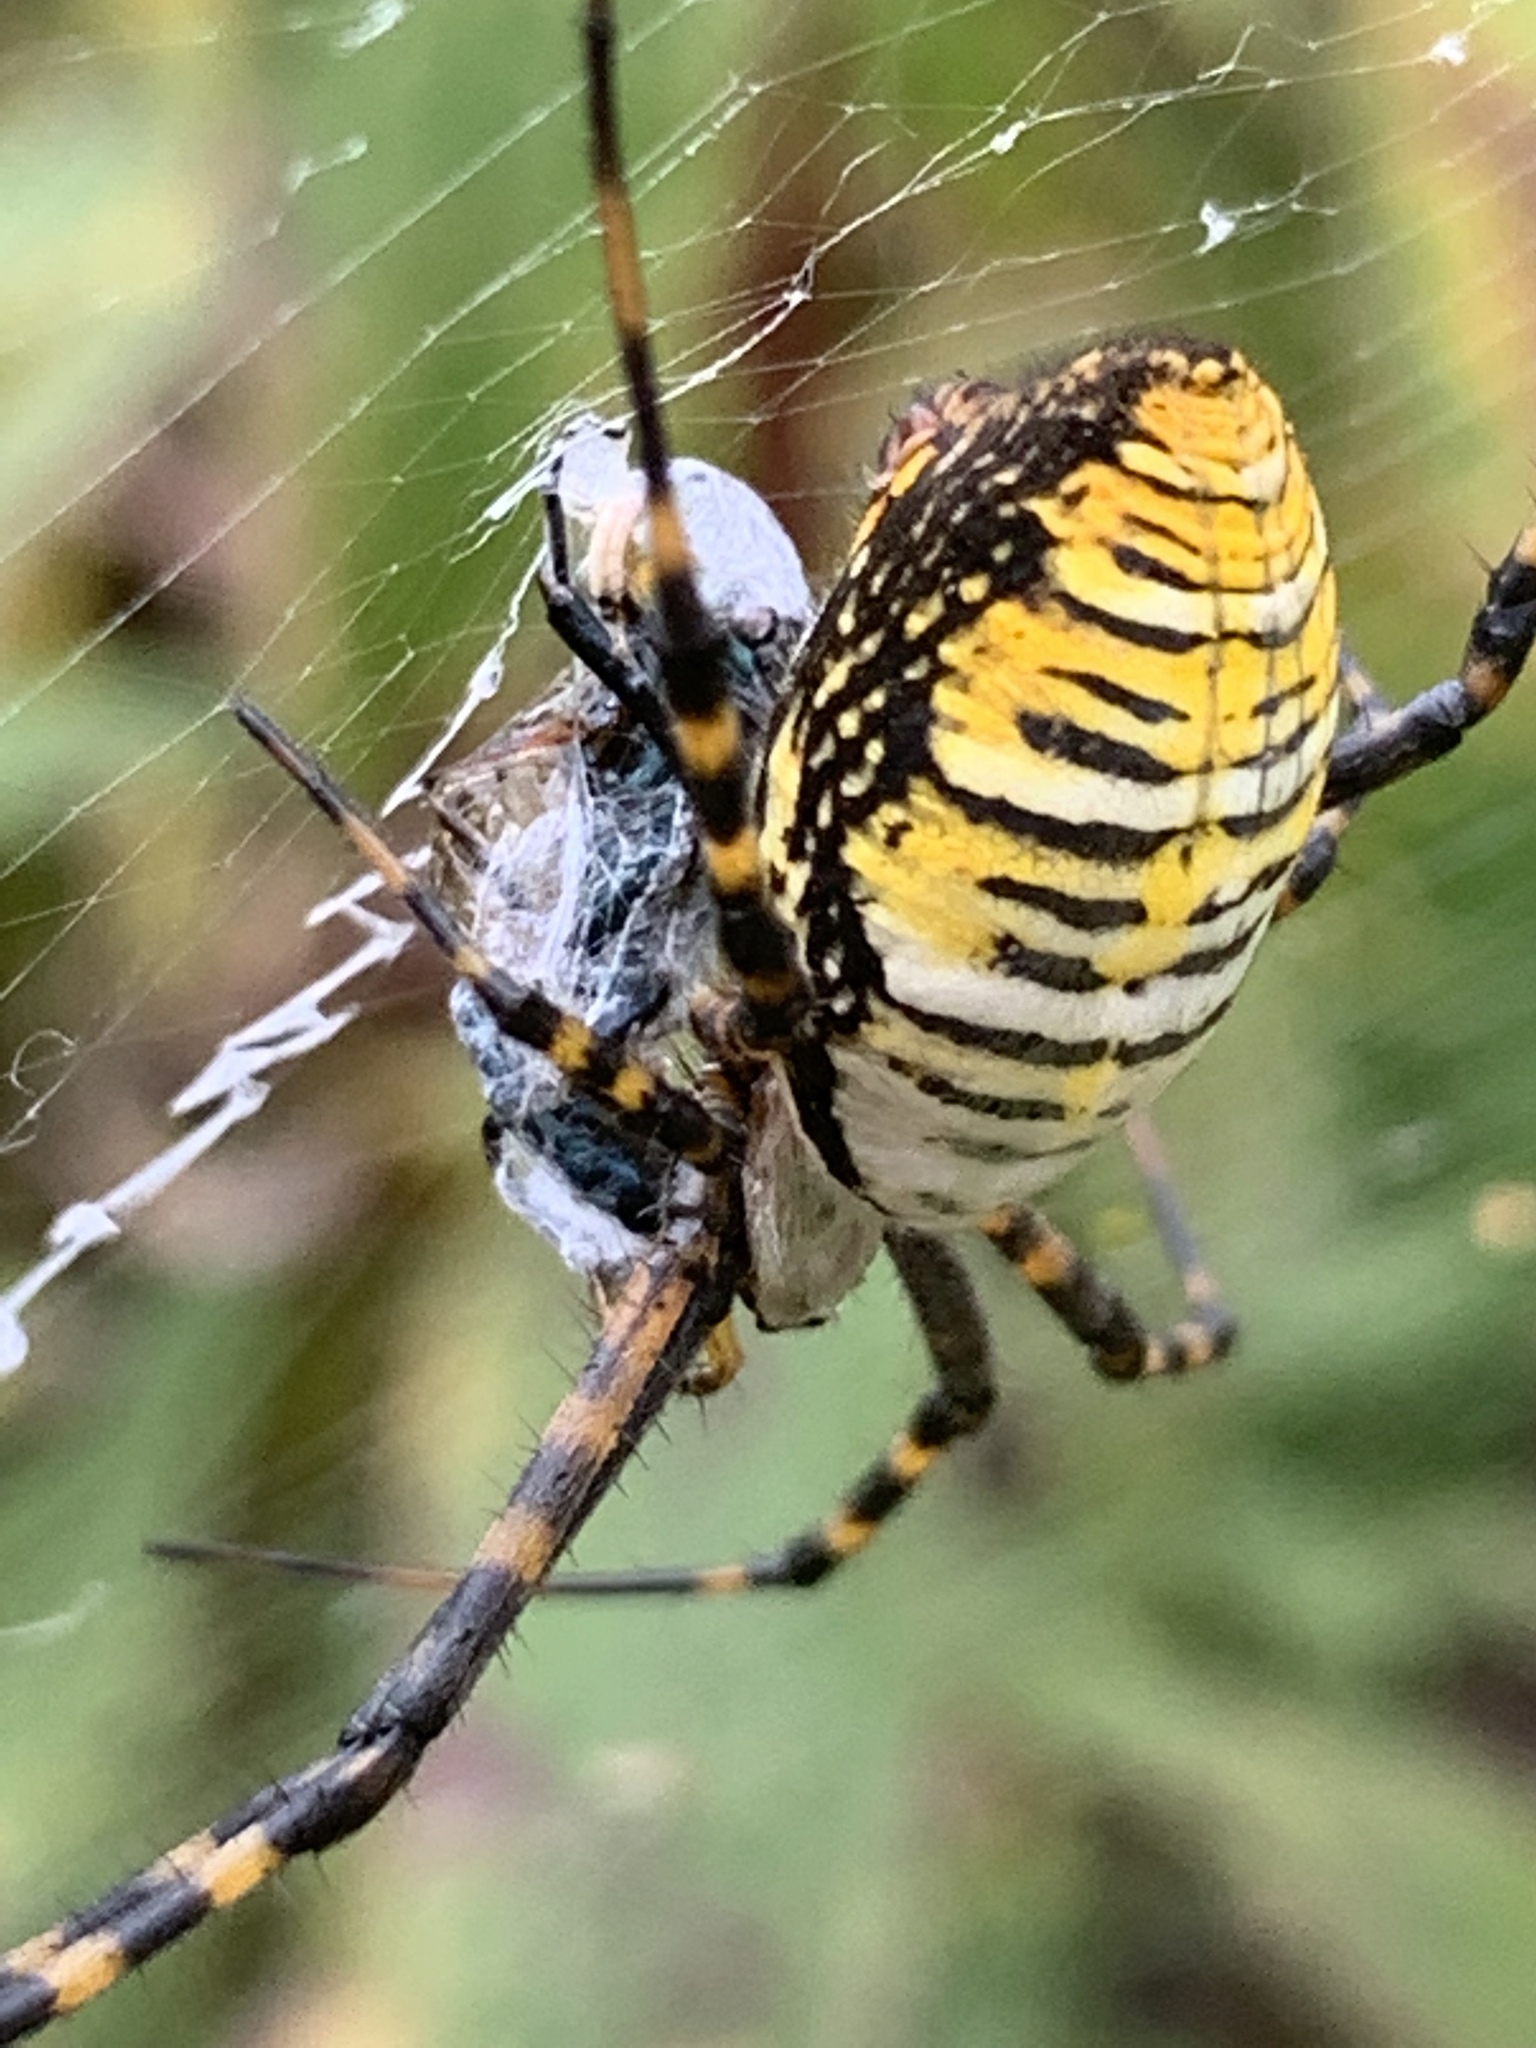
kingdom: Animalia
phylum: Arthropoda
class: Arachnida
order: Araneae
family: Araneidae
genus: Argiope
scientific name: Argiope trifasciata
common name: Banded garden spider
